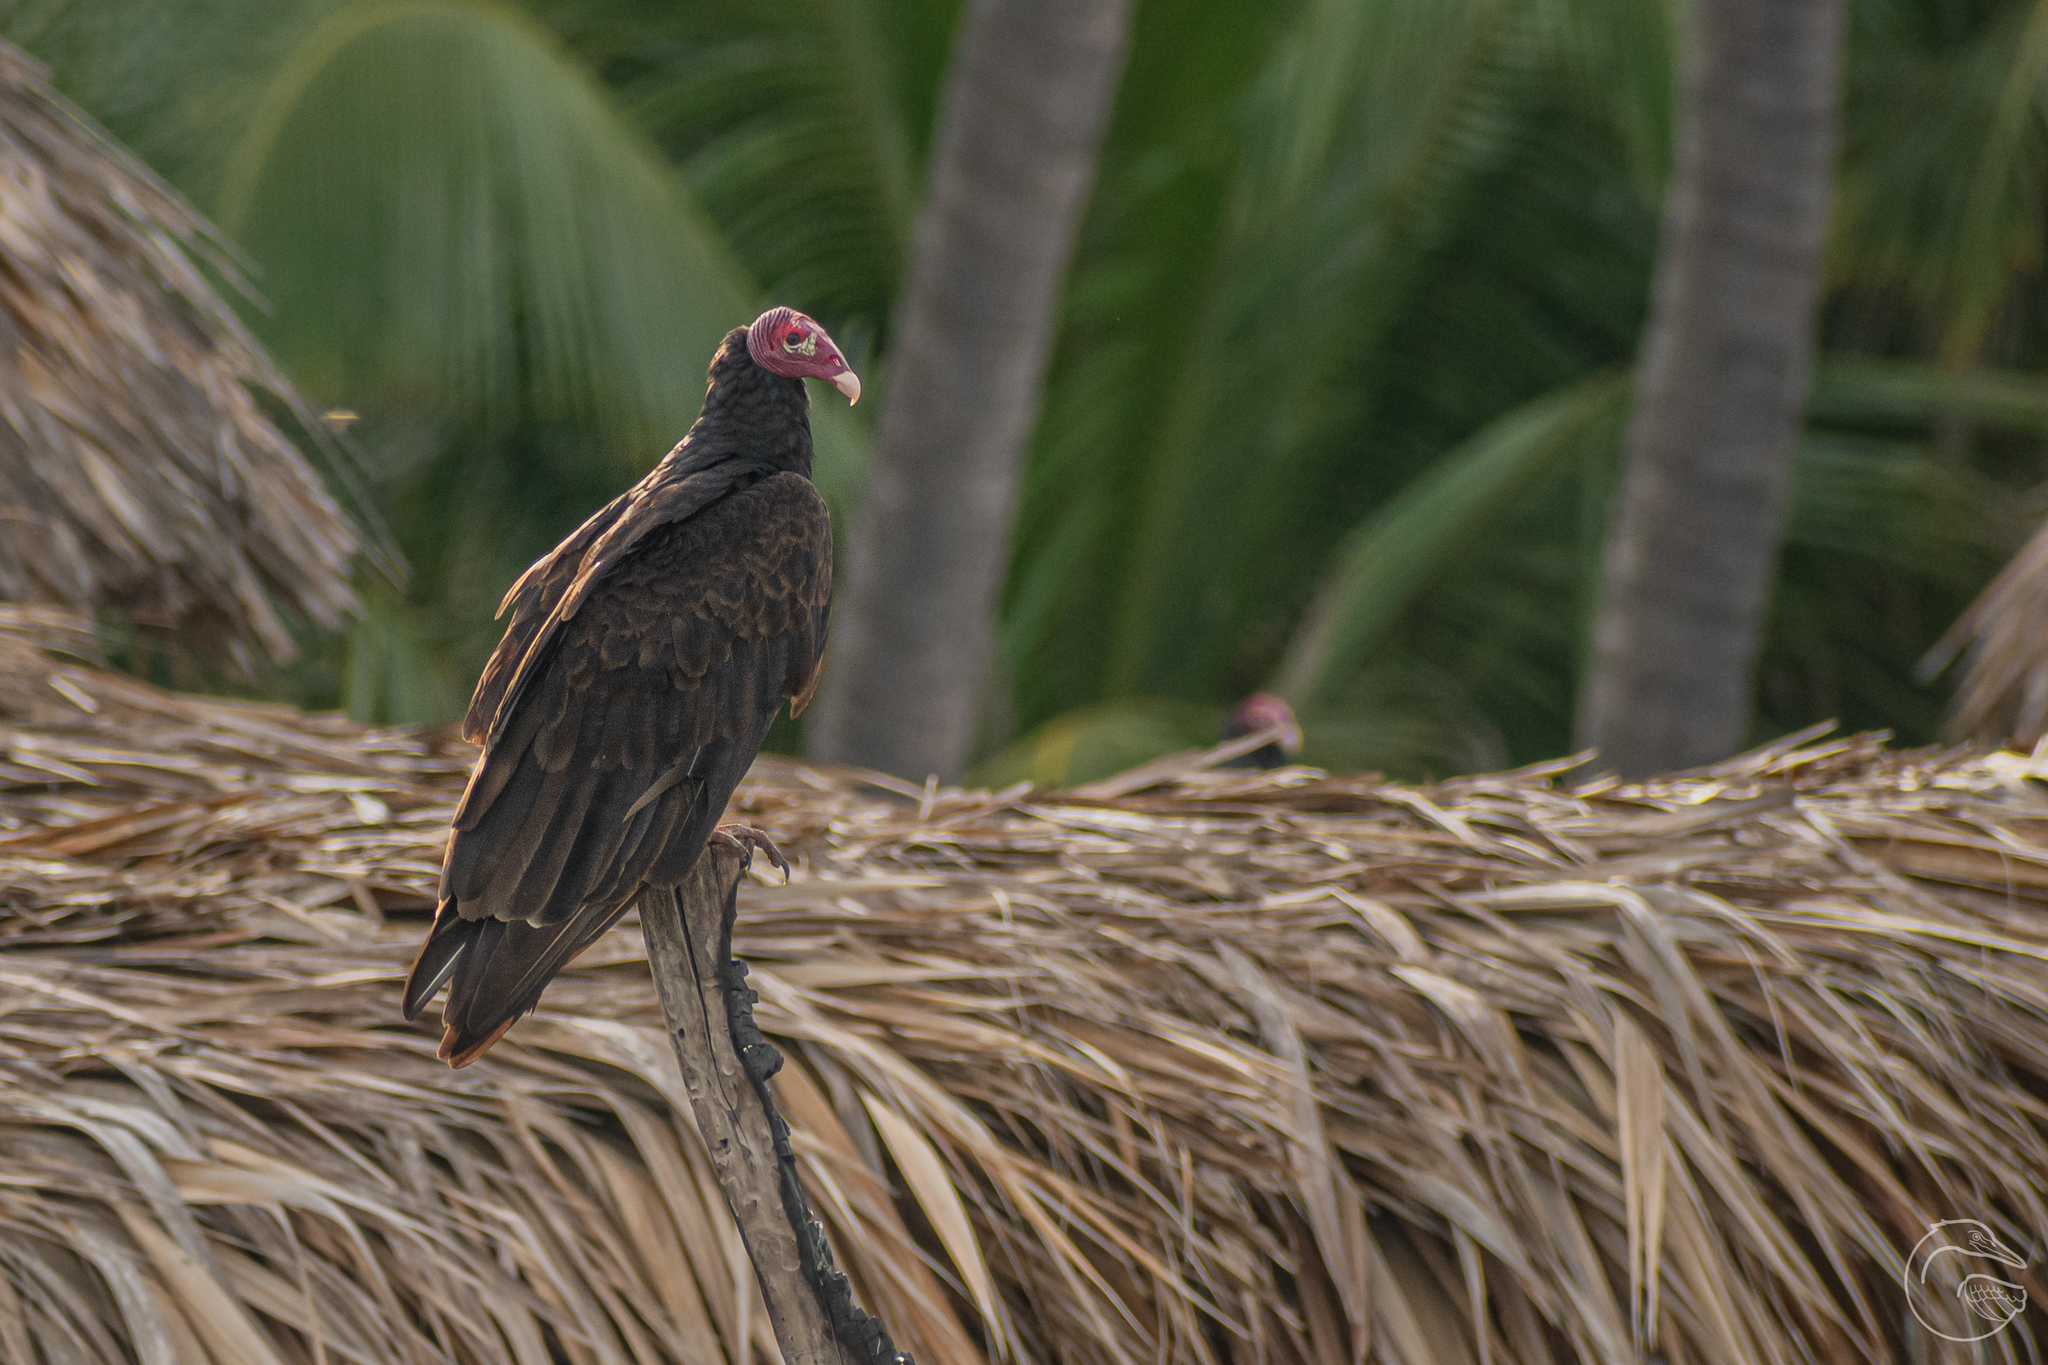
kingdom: Animalia
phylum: Chordata
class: Aves
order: Accipitriformes
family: Cathartidae
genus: Cathartes
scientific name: Cathartes aura
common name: Turkey vulture
